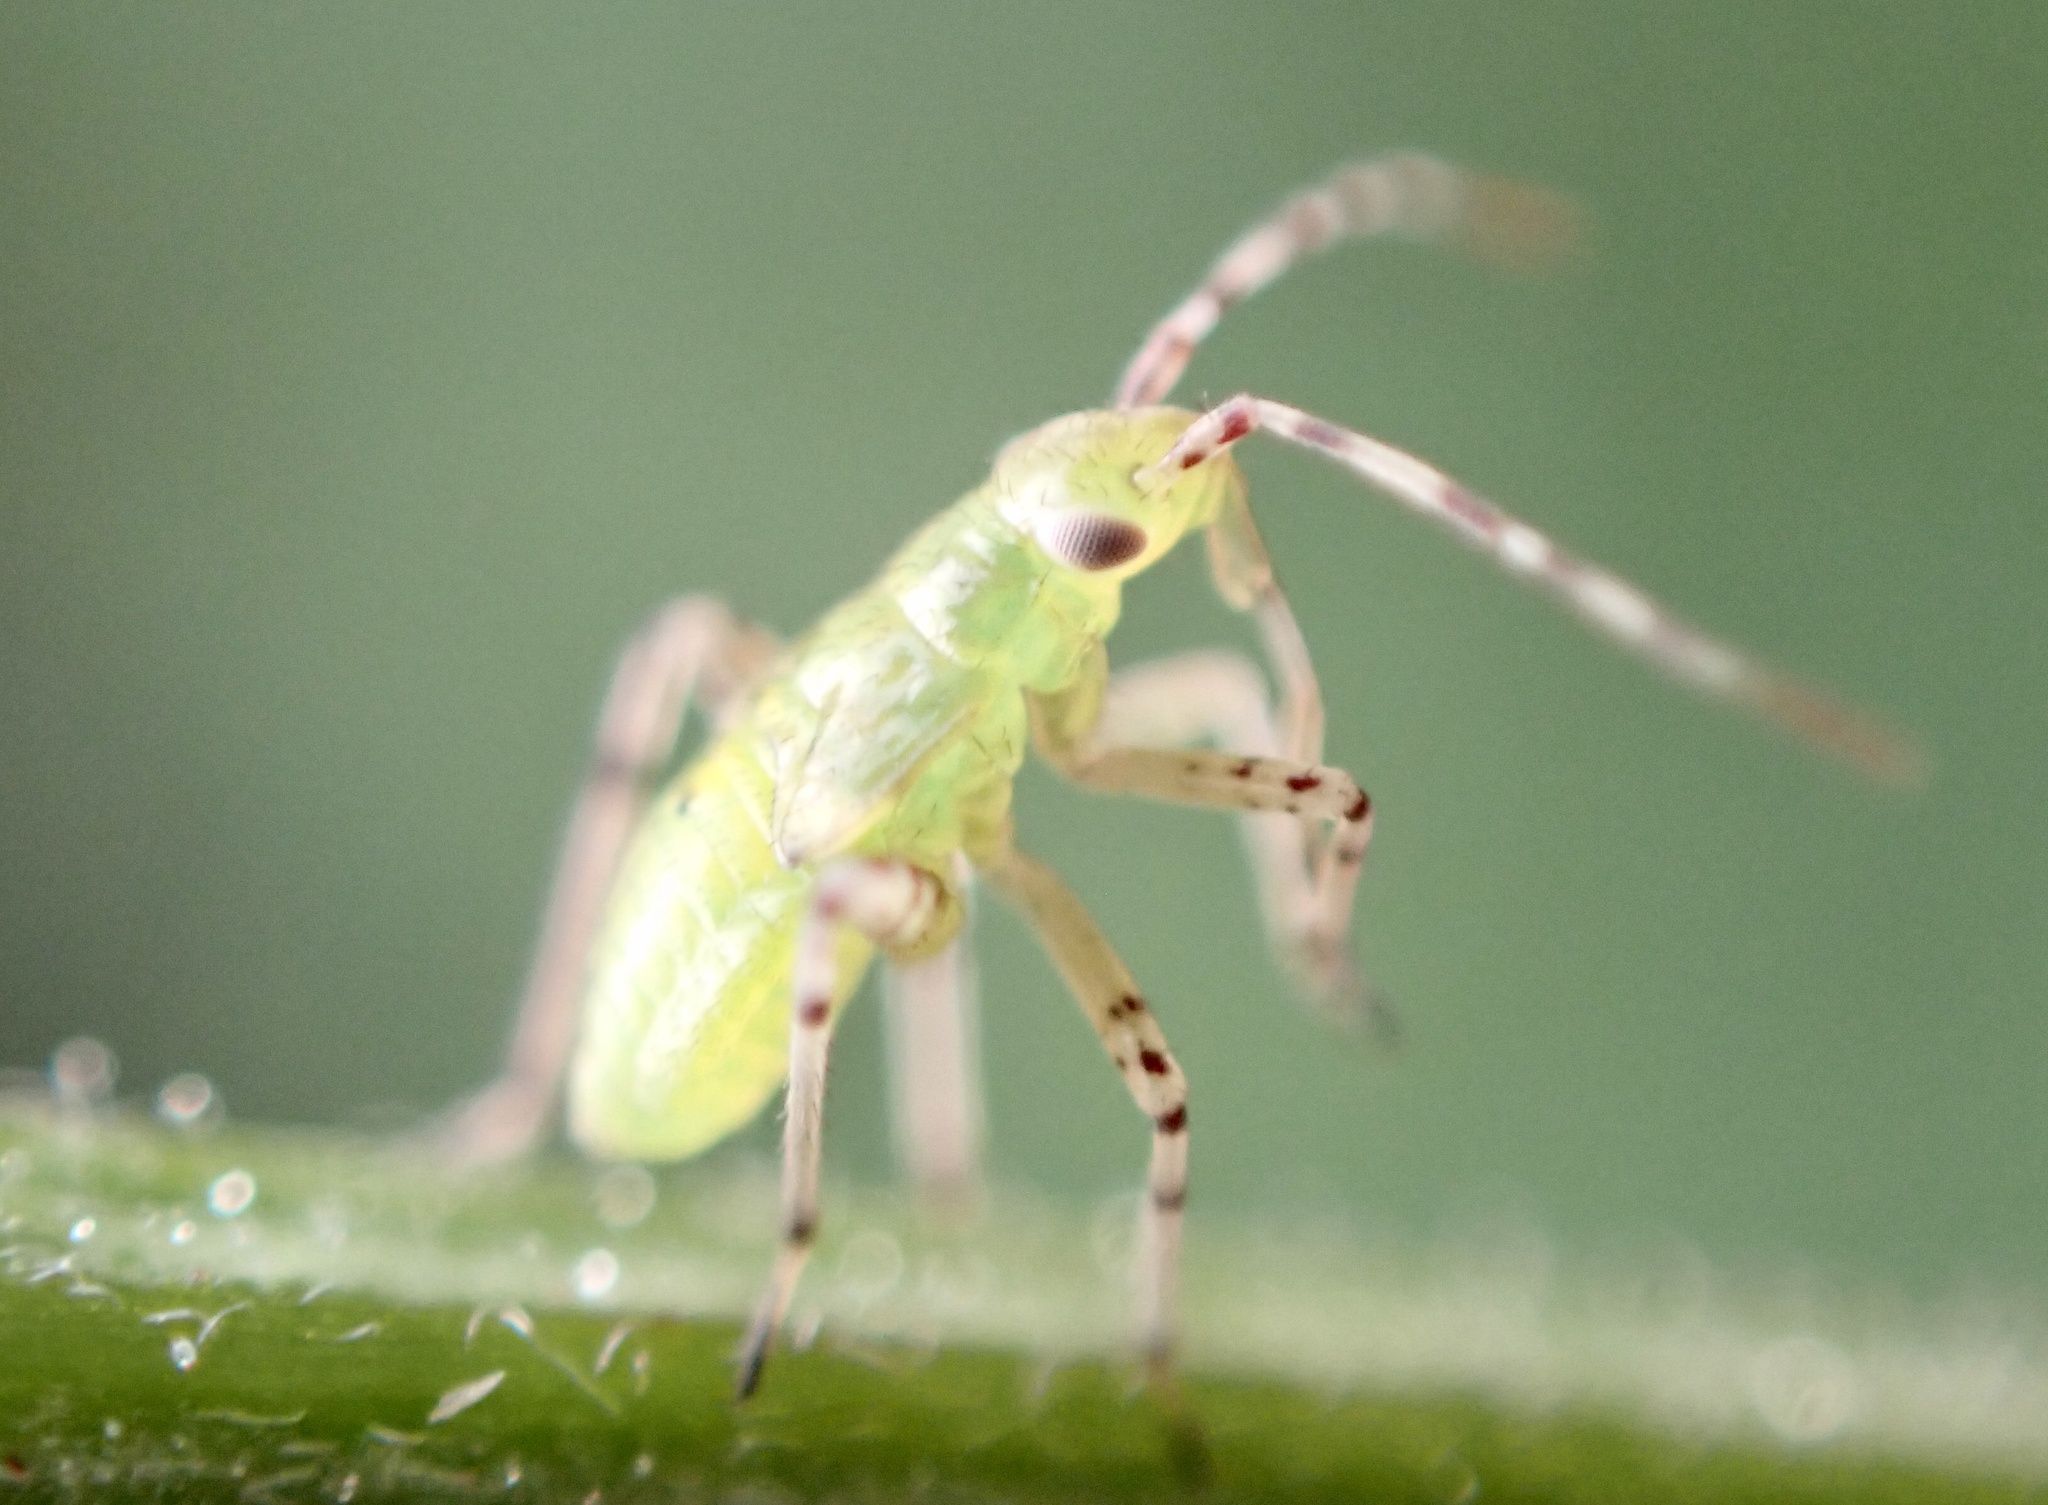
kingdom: Animalia
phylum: Arthropoda
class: Insecta
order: Hemiptera
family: Miridae
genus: Liocoris
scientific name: Liocoris tripustulatus
